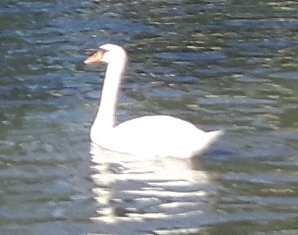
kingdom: Animalia
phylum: Chordata
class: Aves
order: Anseriformes
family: Anatidae
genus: Cygnus
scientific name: Cygnus olor
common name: Mute swan
